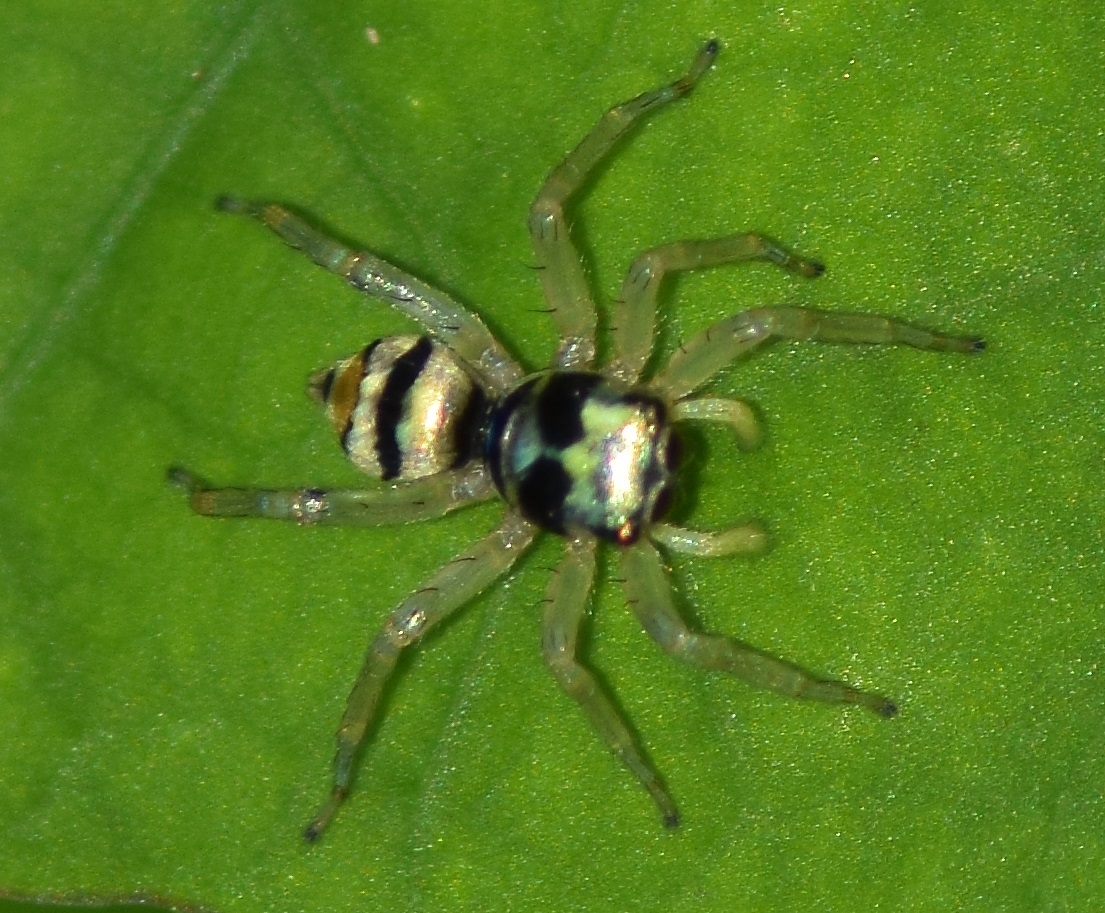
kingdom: Animalia
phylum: Arthropoda
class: Arachnida
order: Araneae
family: Salticidae
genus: Phintella
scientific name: Phintella vittata
